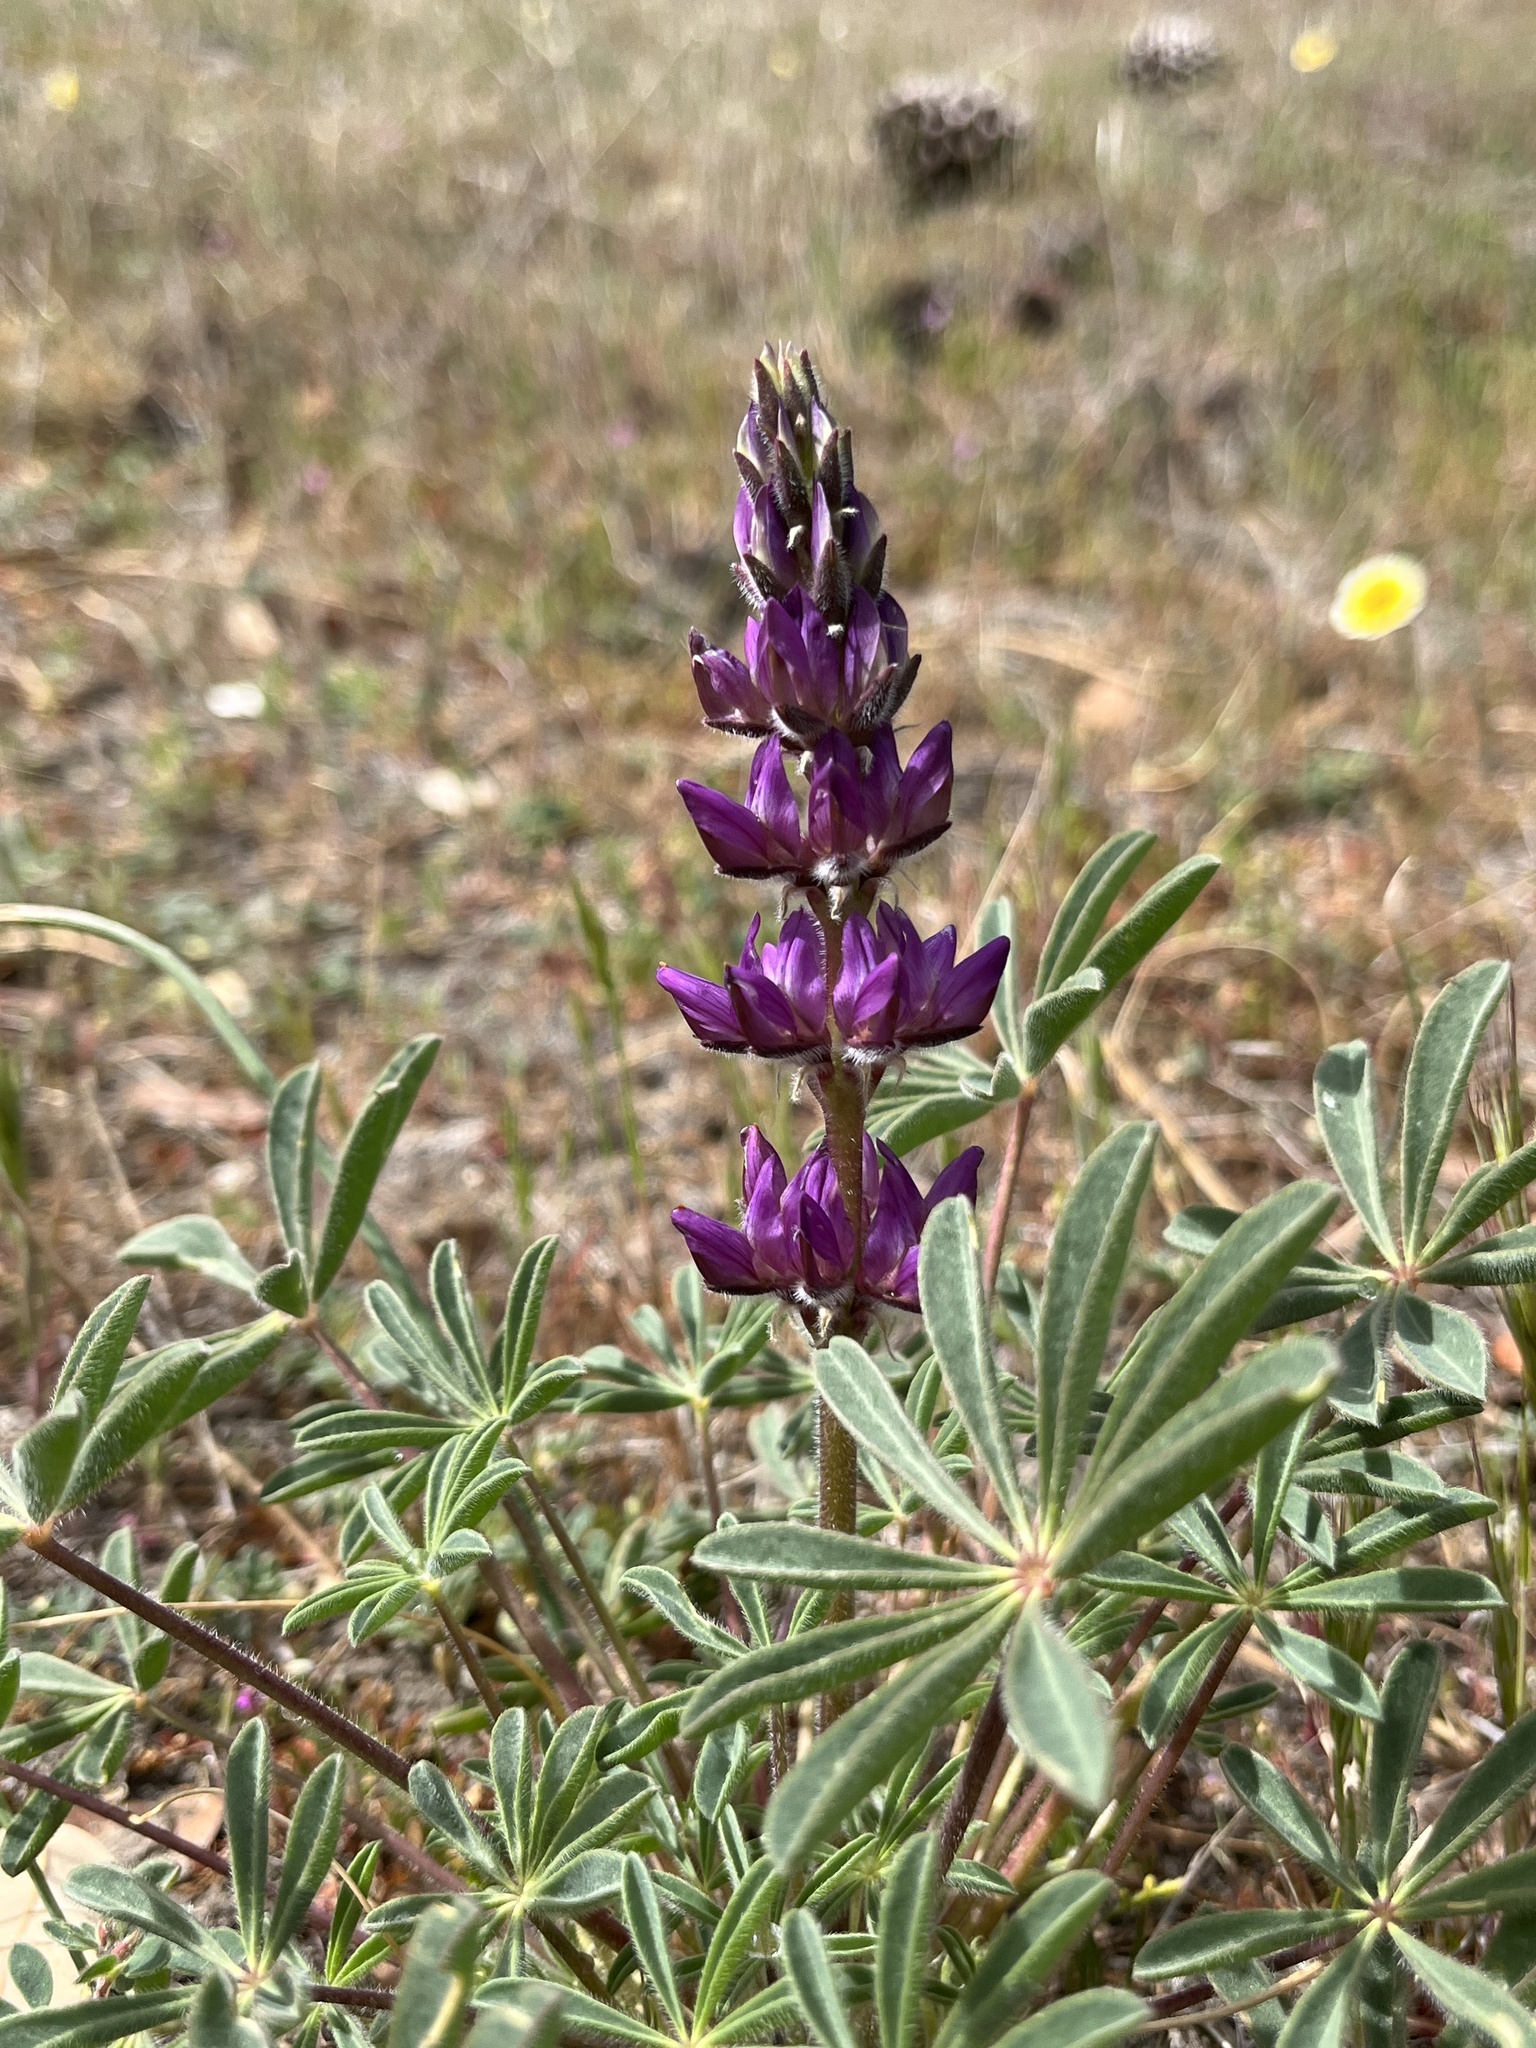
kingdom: Plantae
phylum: Tracheophyta
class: Magnoliopsida
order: Fabales
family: Fabaceae
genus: Lupinus
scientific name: Lupinus microcarpus
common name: Chick lupine
